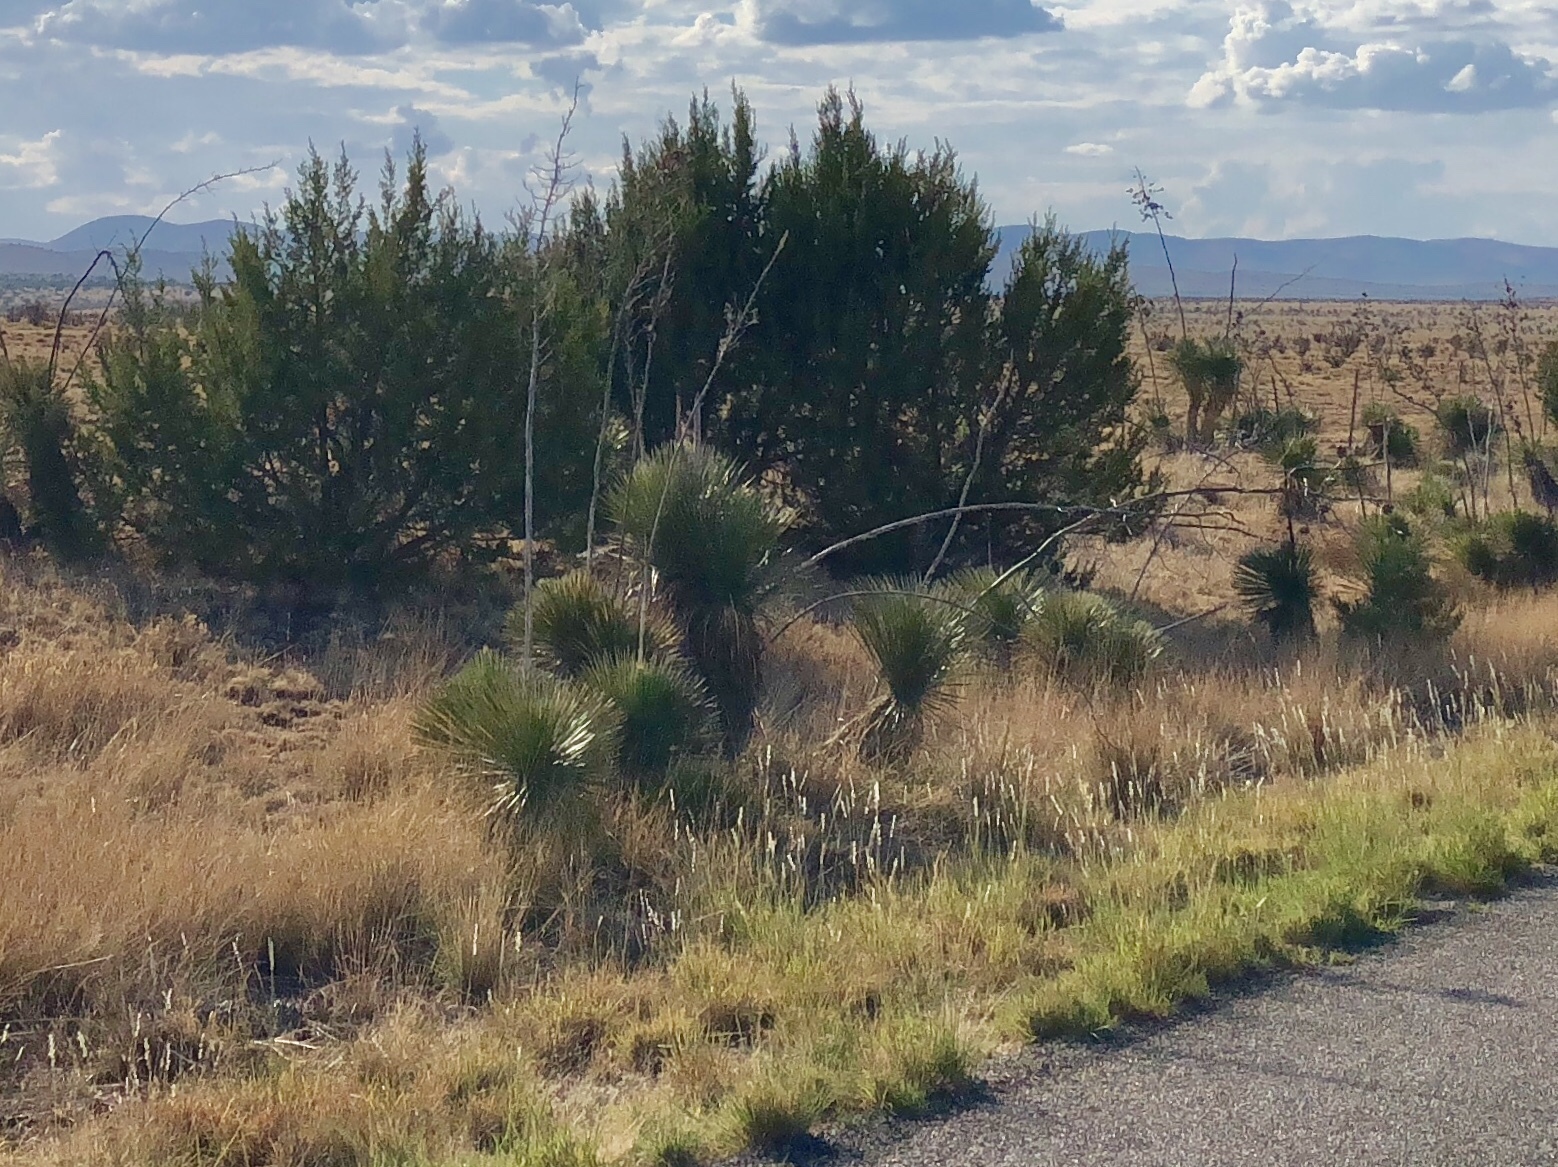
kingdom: Plantae
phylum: Tracheophyta
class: Liliopsida
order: Asparagales
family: Asparagaceae
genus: Yucca
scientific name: Yucca elata
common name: Palmella
